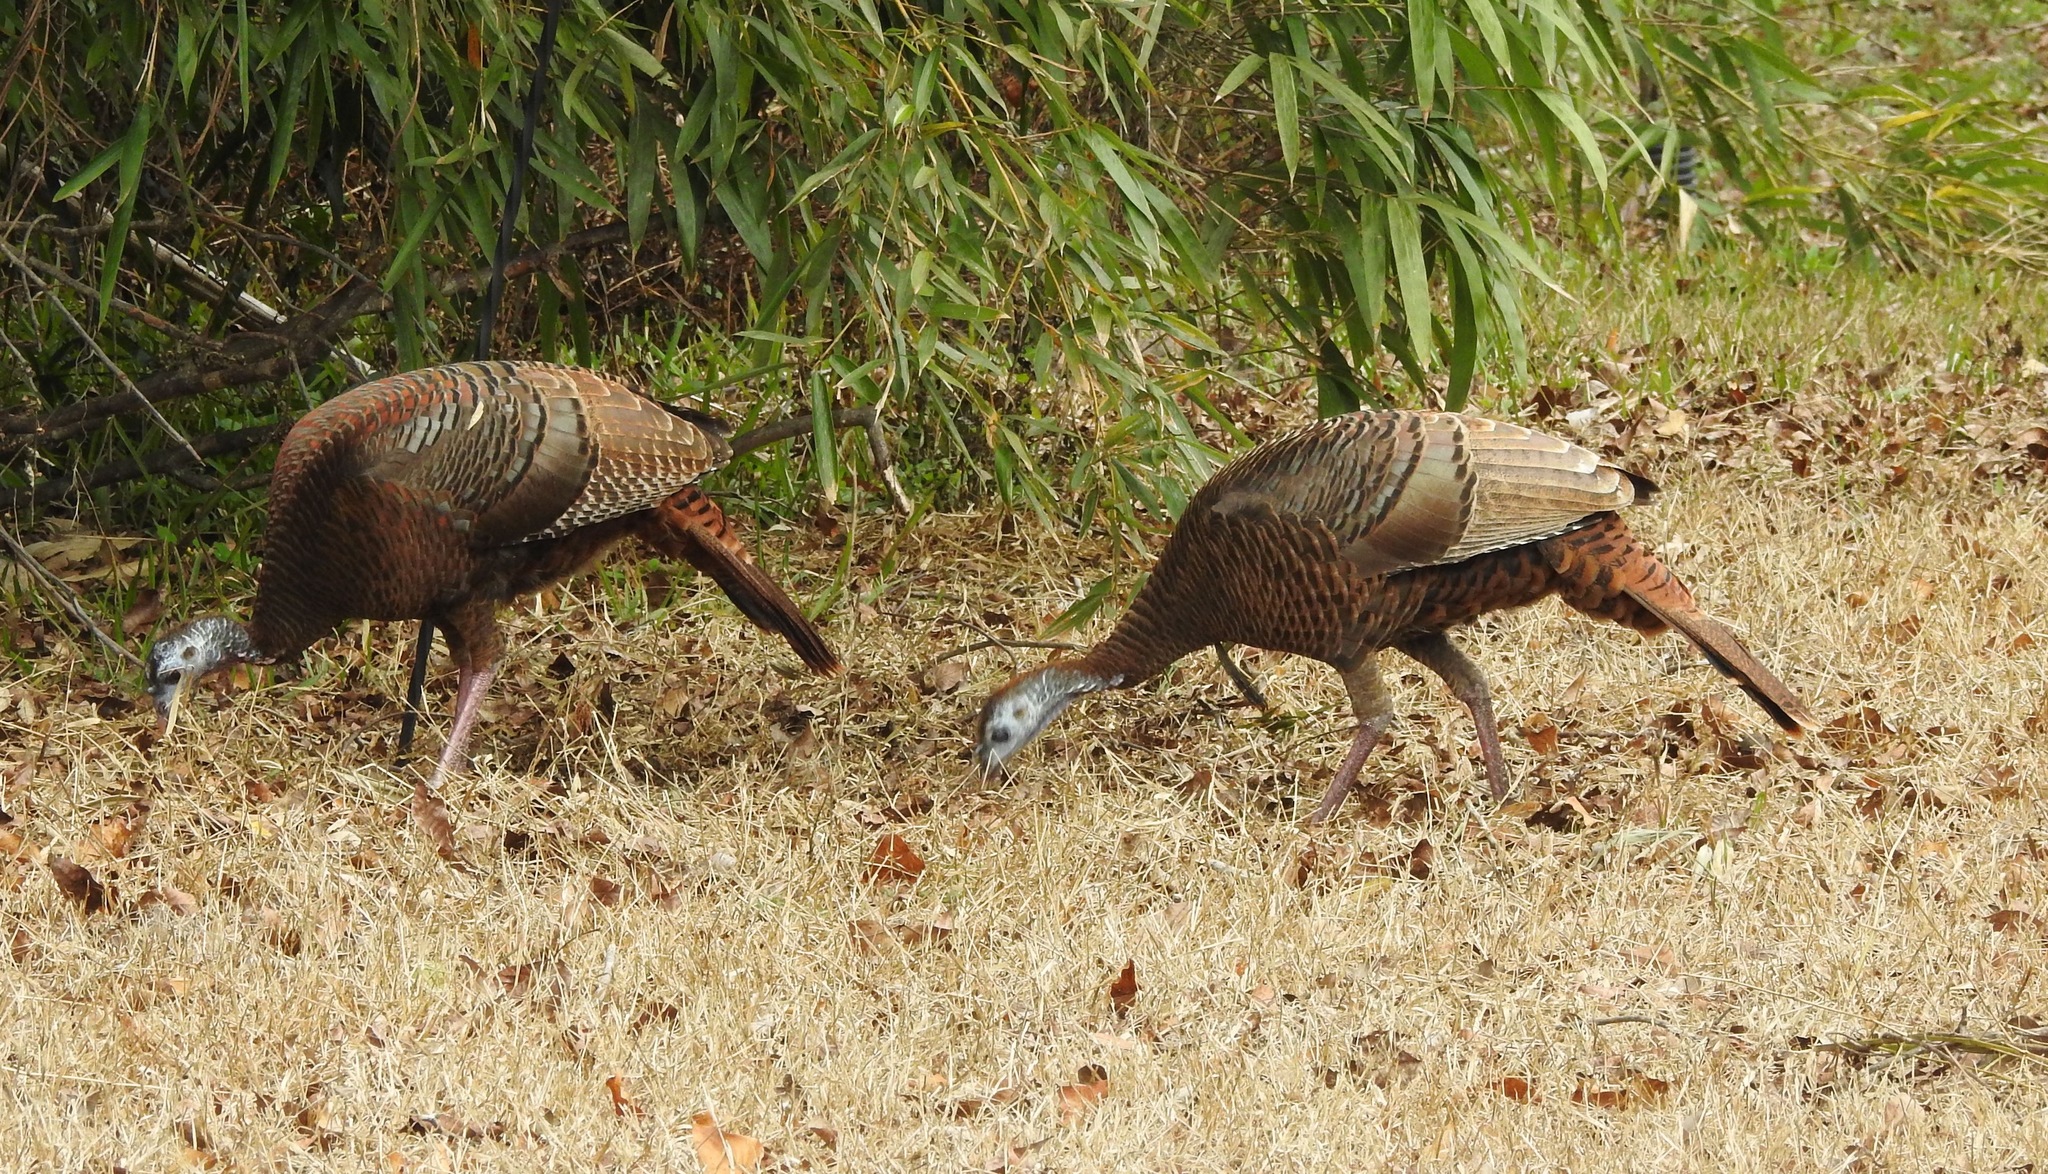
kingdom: Animalia
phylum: Chordata
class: Aves
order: Galliformes
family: Phasianidae
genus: Meleagris
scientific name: Meleagris gallopavo
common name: Wild turkey
